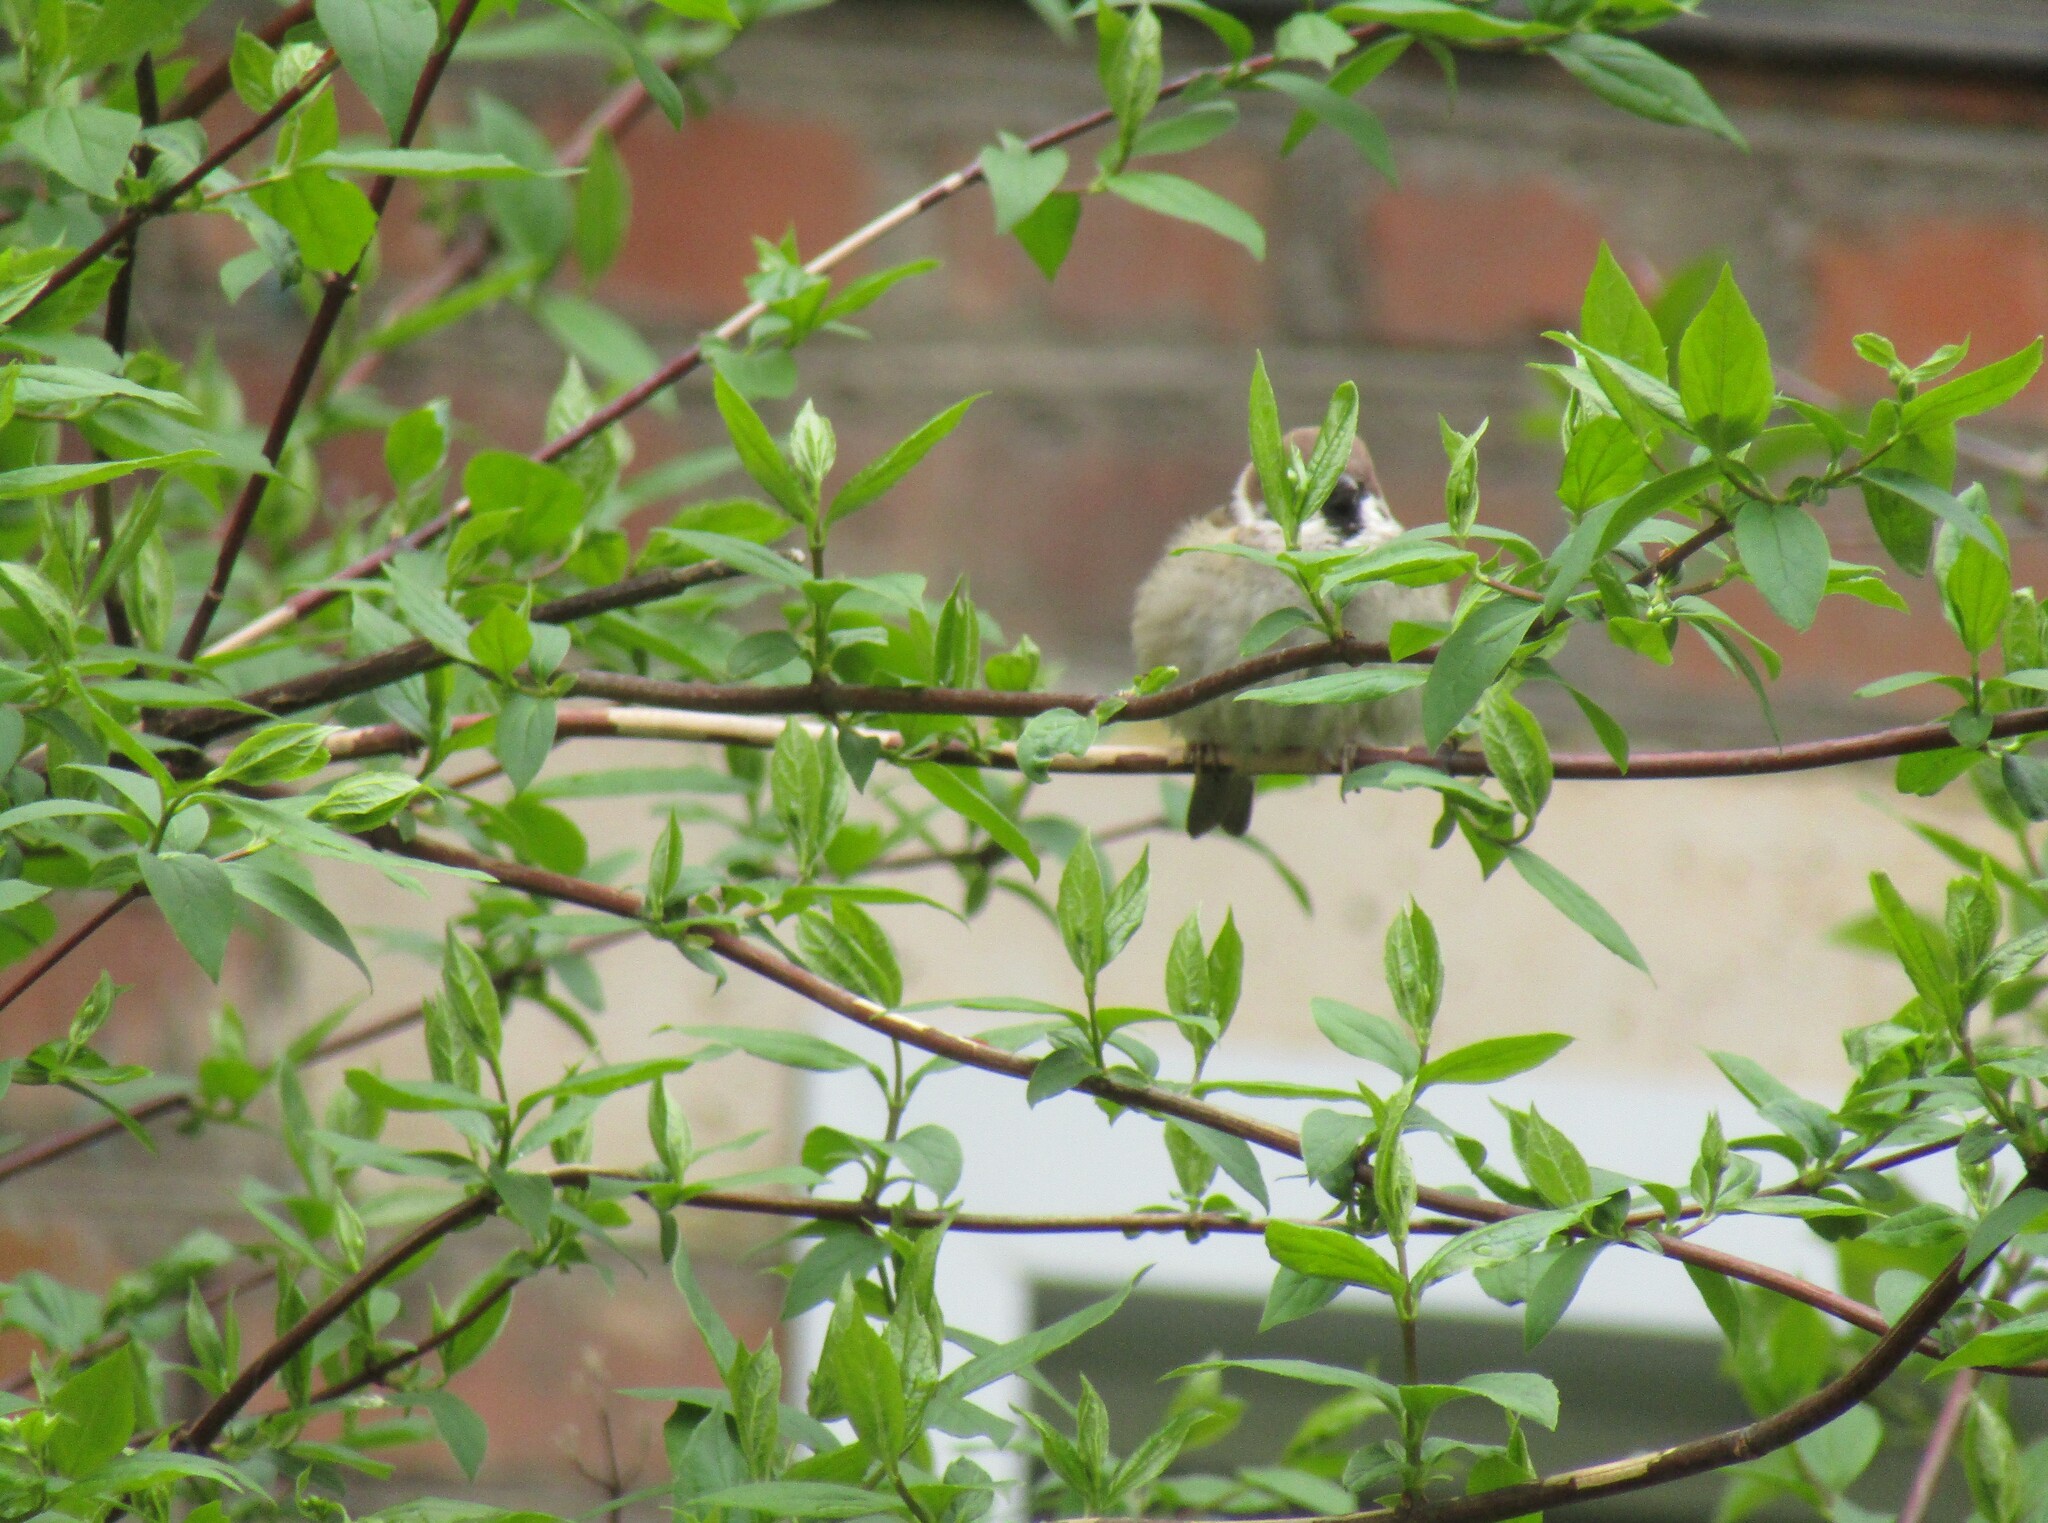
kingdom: Animalia
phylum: Chordata
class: Aves
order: Passeriformes
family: Passeridae
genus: Passer
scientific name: Passer montanus
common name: Eurasian tree sparrow
